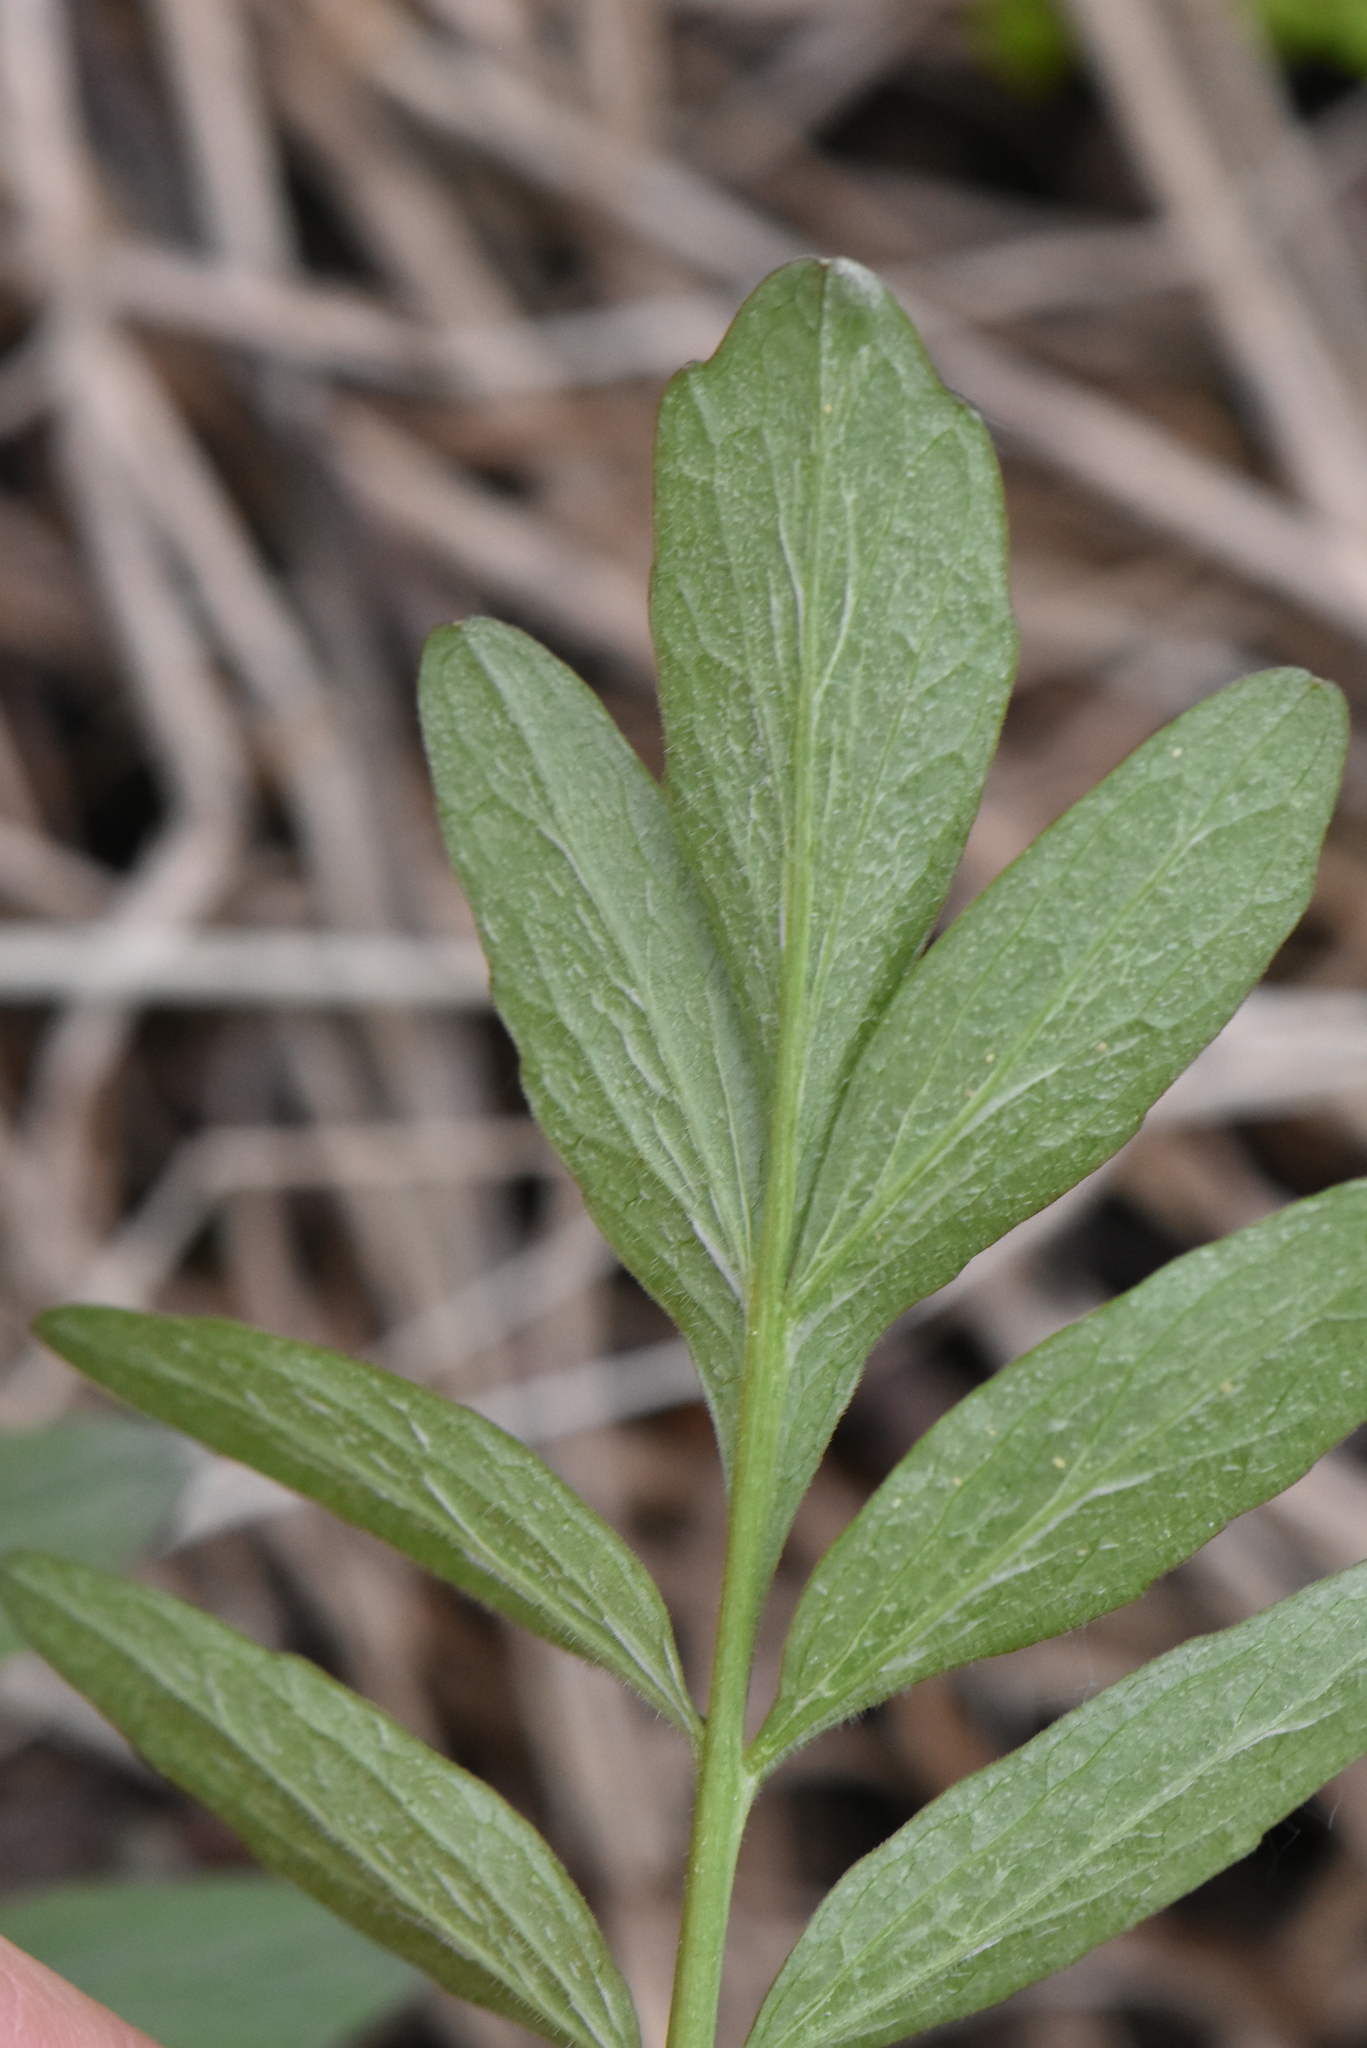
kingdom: Plantae
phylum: Tracheophyta
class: Magnoliopsida
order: Dipsacales
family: Caprifoliaceae
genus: Valeriana
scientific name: Valeriana officinalis
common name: Common valerian
